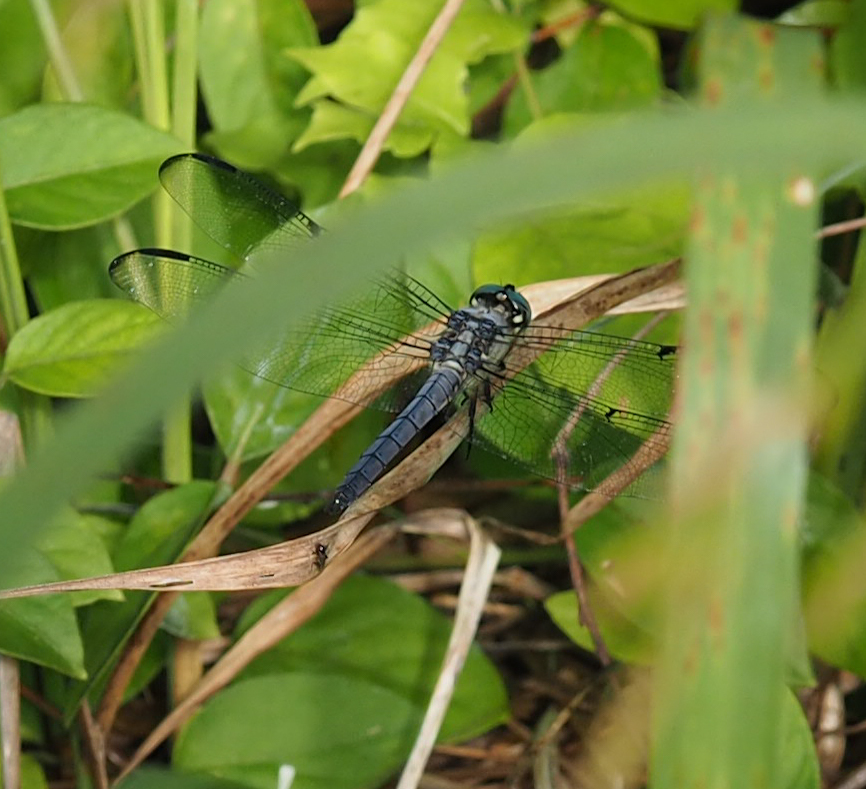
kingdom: Animalia
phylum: Arthropoda
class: Insecta
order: Odonata
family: Libellulidae
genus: Libellula
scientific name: Libellula vibrans
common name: Great blue skimmer
